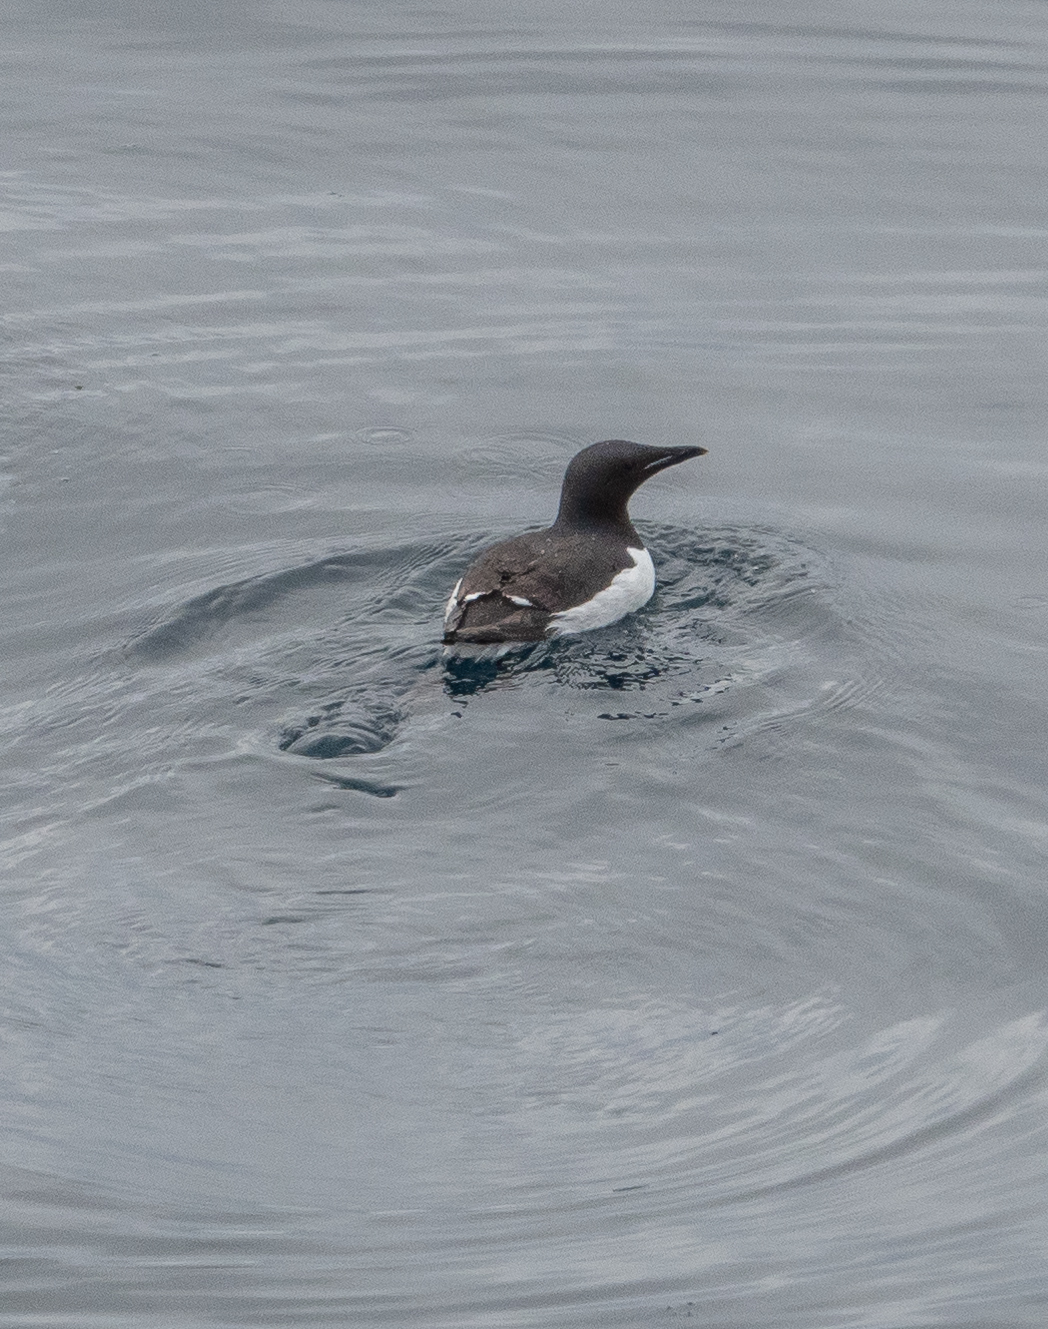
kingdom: Animalia
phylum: Chordata
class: Aves
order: Charadriiformes
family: Alcidae
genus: Uria
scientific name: Uria lomvia
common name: Thick-billed murre
